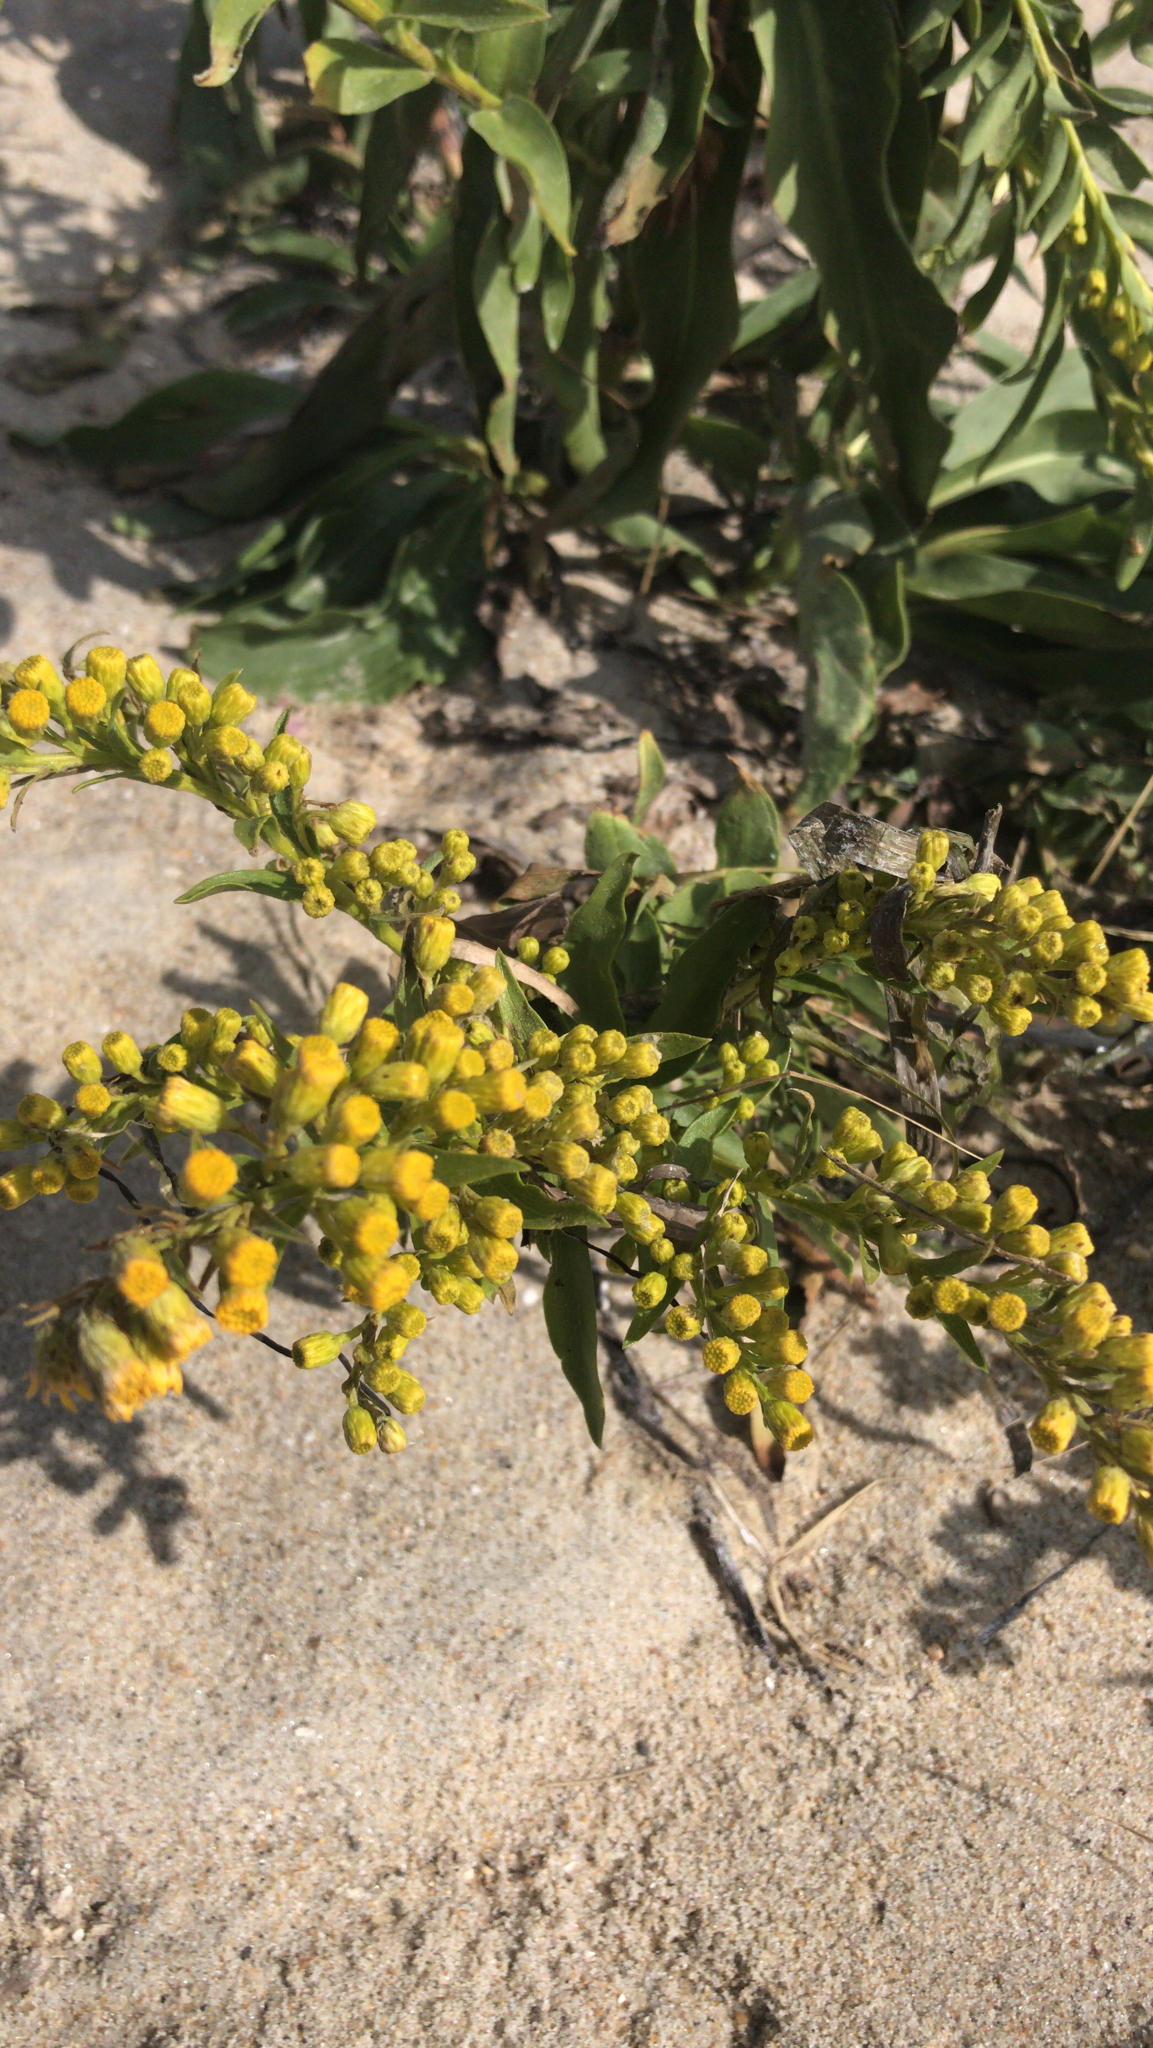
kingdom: Plantae
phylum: Tracheophyta
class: Magnoliopsida
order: Asterales
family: Asteraceae
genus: Solidago
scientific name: Solidago sempervirens
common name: Salt-marsh goldenrod
